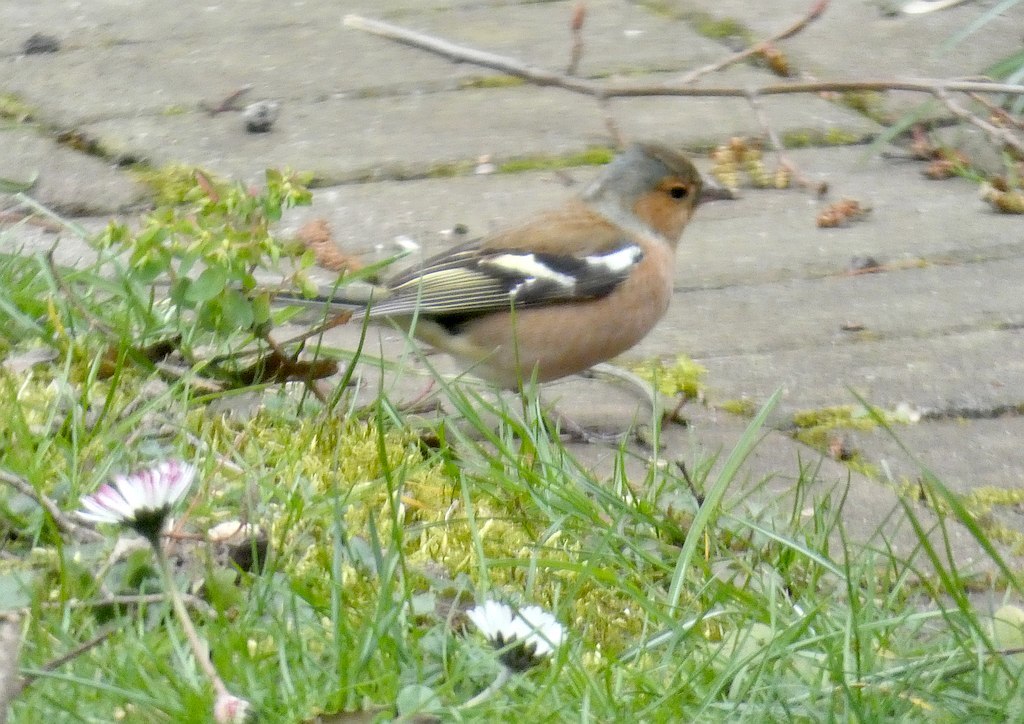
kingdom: Animalia
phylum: Chordata
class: Aves
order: Passeriformes
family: Fringillidae
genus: Fringilla
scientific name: Fringilla coelebs
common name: Common chaffinch
